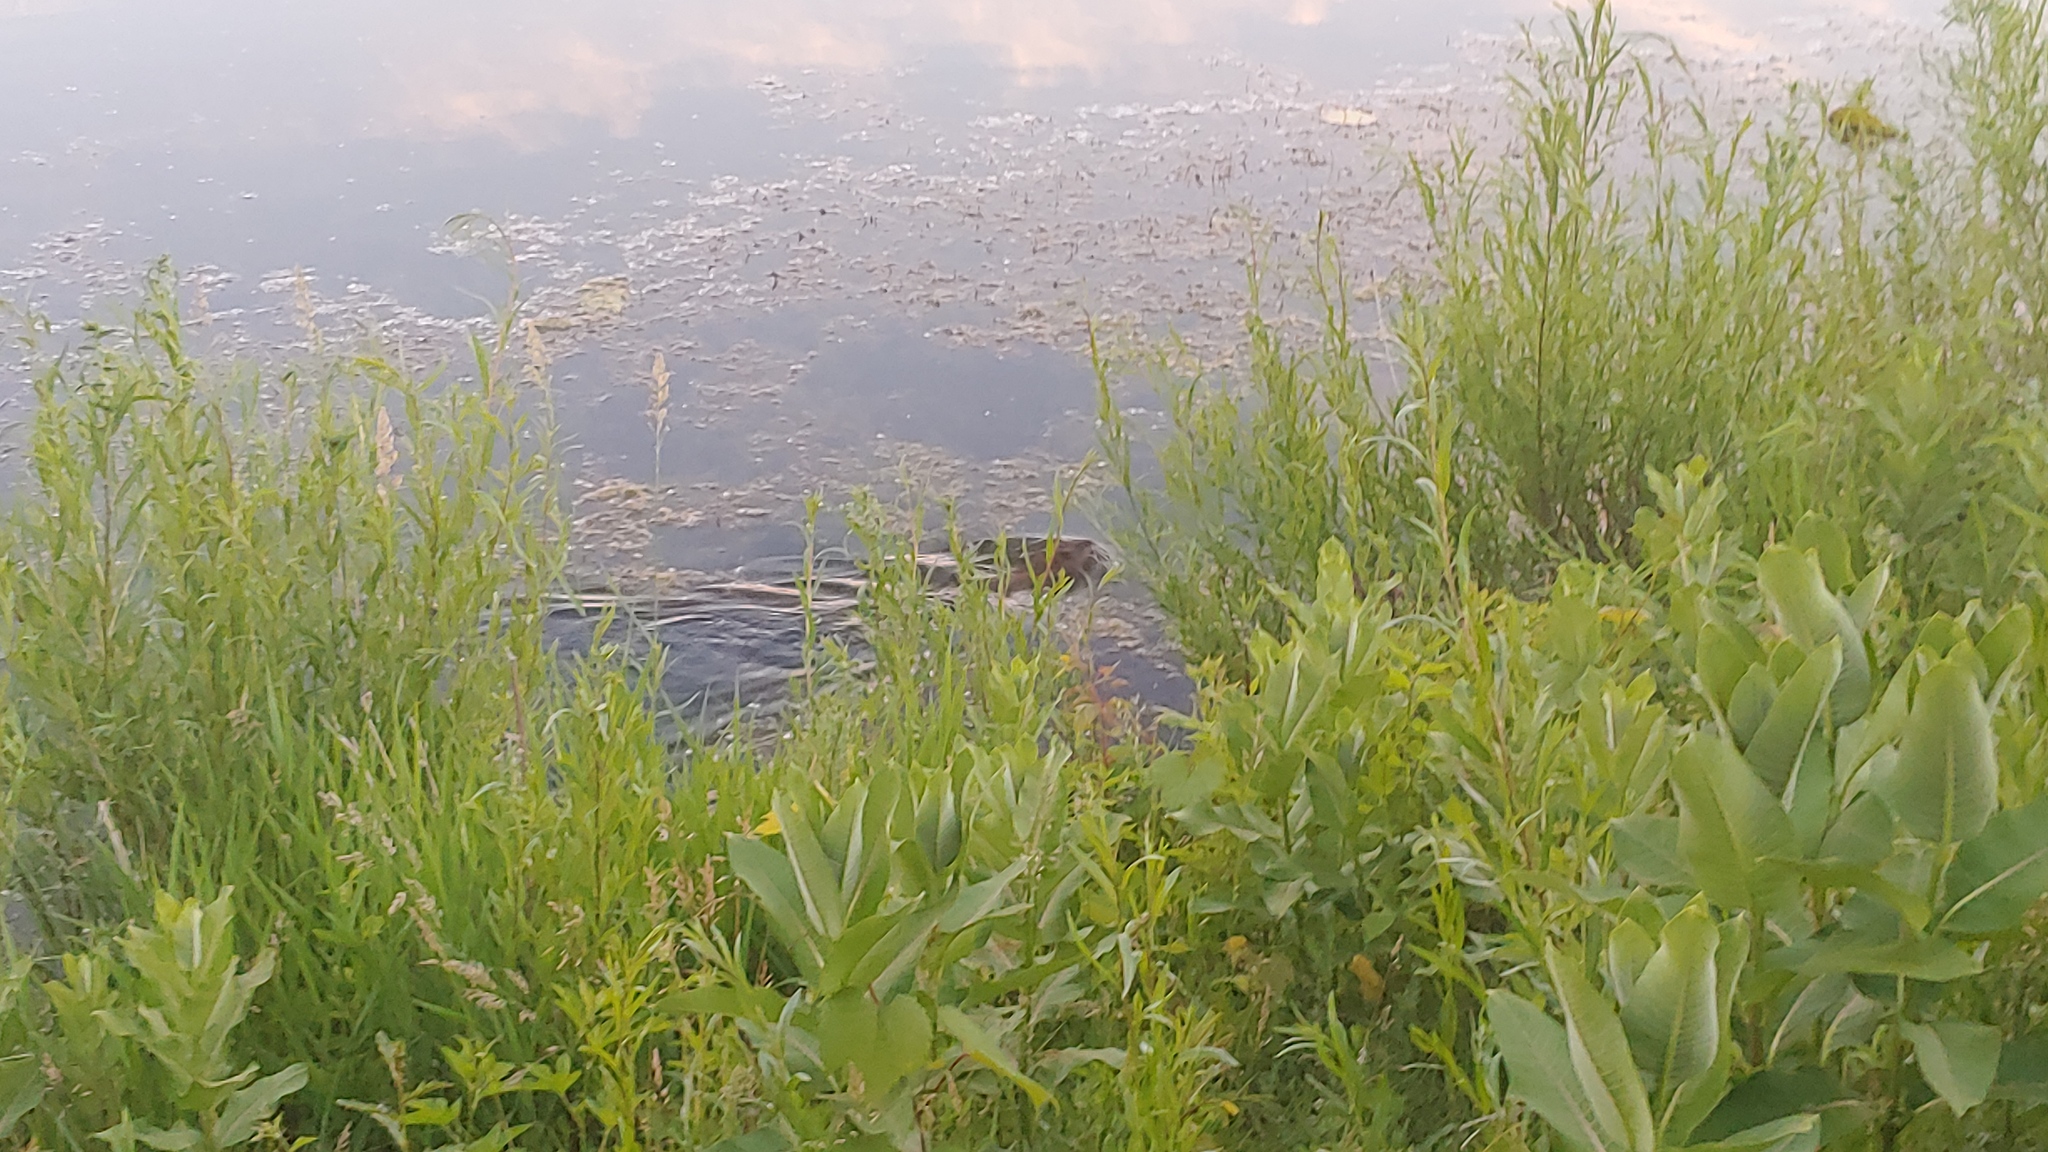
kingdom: Animalia
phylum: Chordata
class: Mammalia
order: Rodentia
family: Cricetidae
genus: Ondatra
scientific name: Ondatra zibethicus
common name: Muskrat
